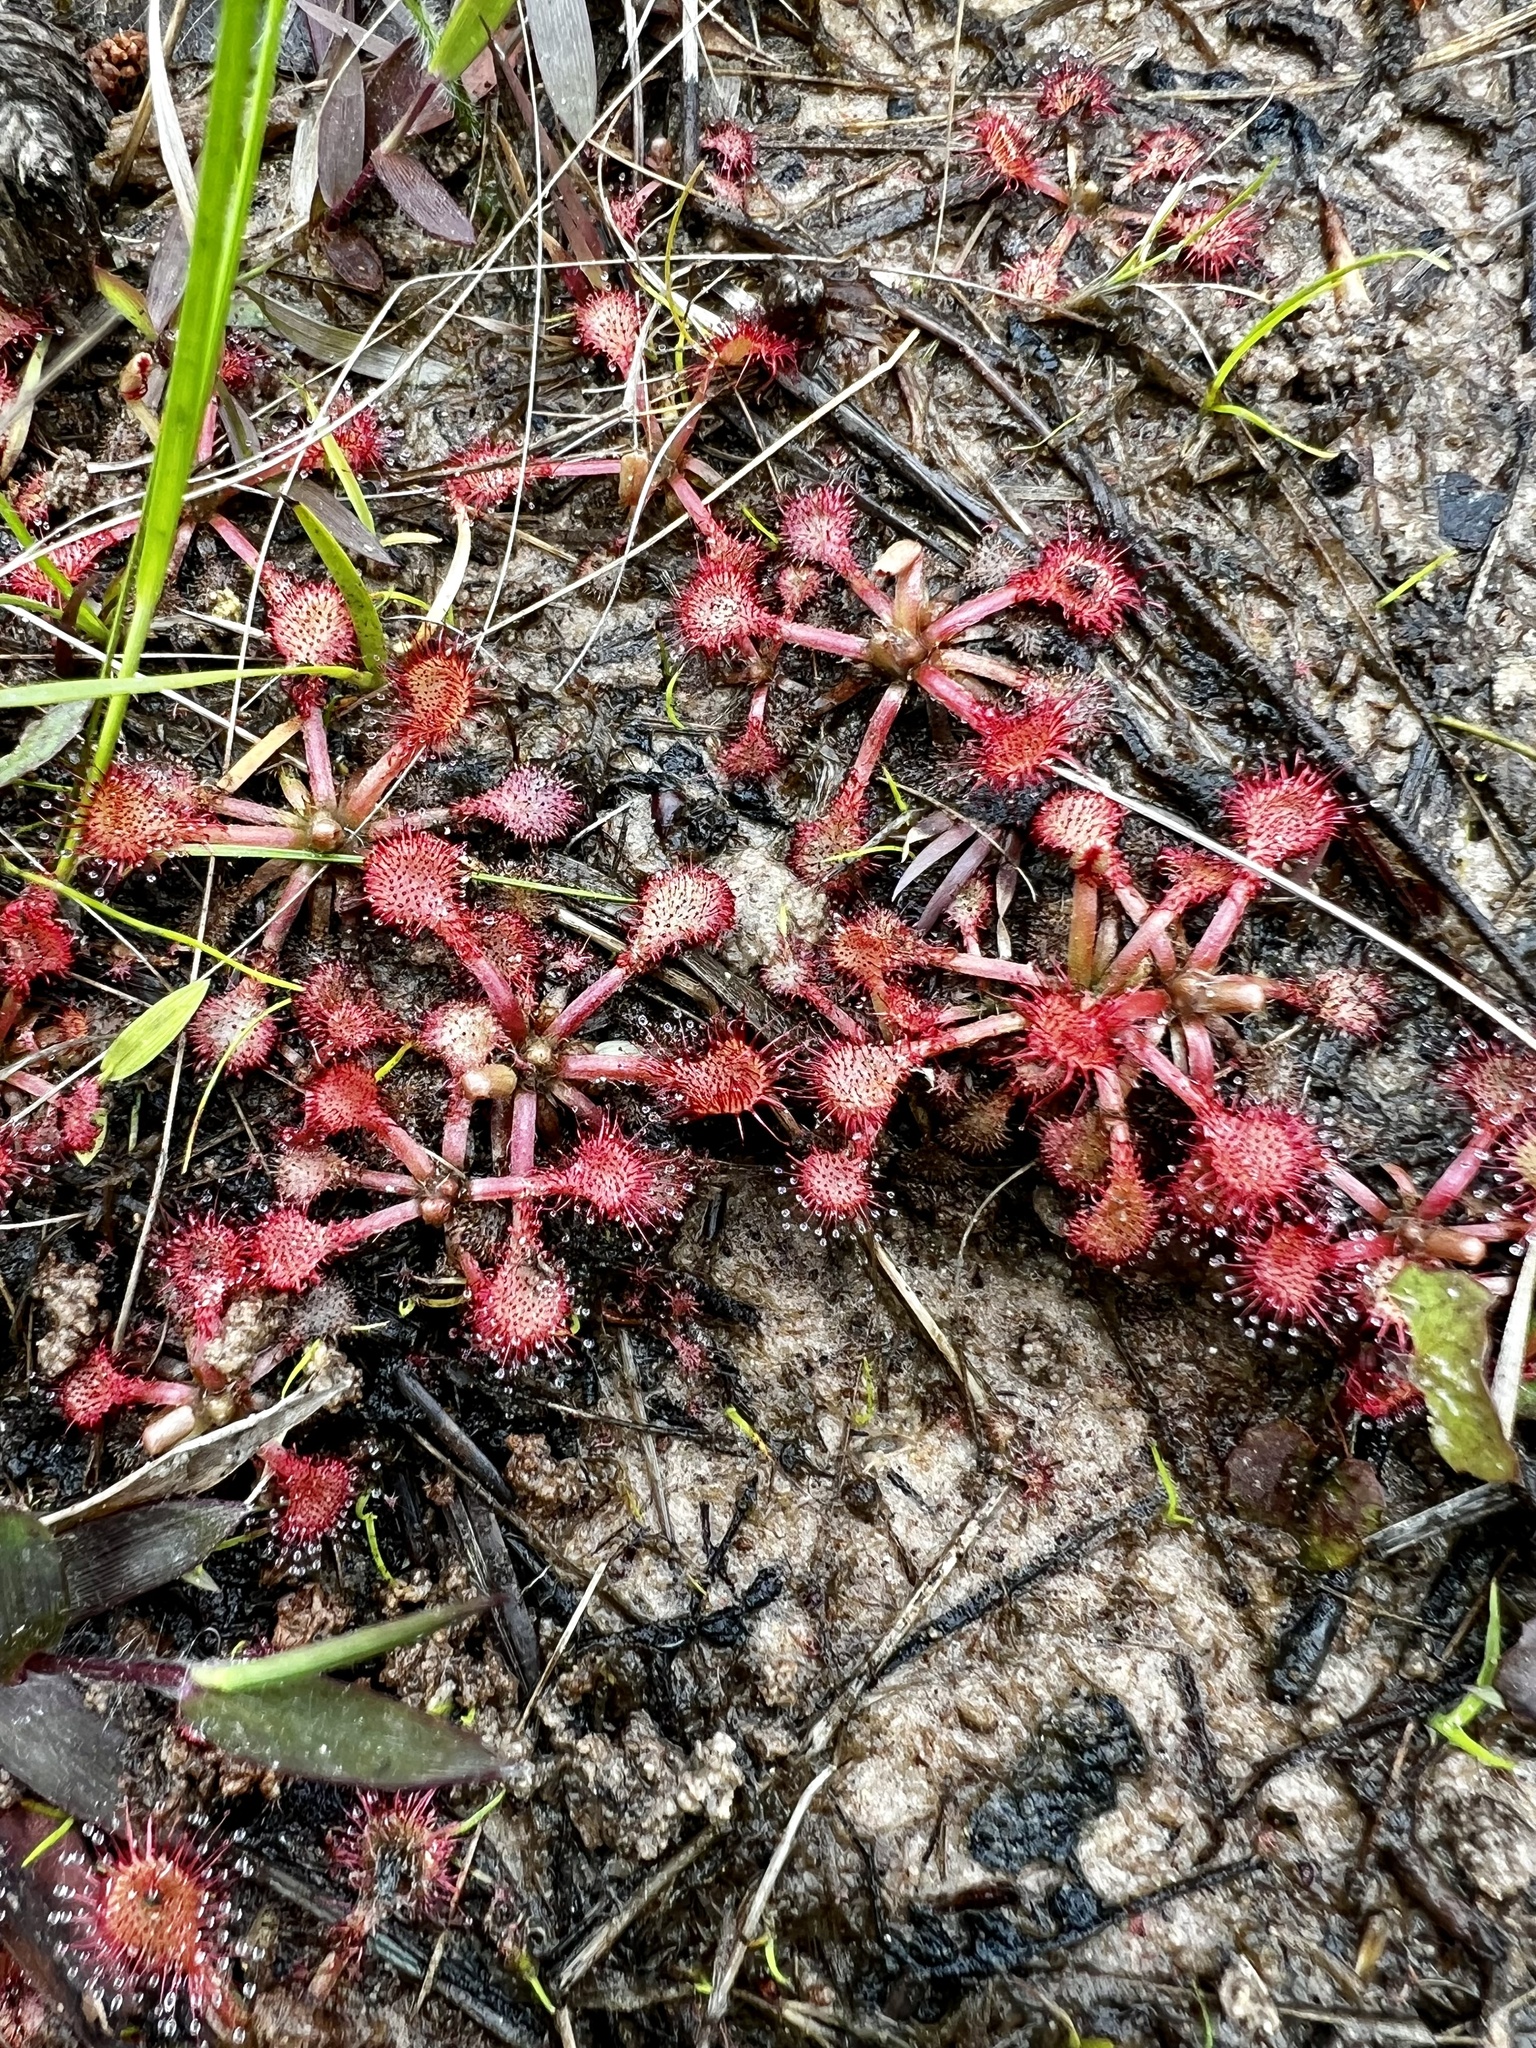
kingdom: Plantae
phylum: Tracheophyta
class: Magnoliopsida
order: Caryophyllales
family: Droseraceae
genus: Drosera
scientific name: Drosera capillaris
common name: Pink sundew
